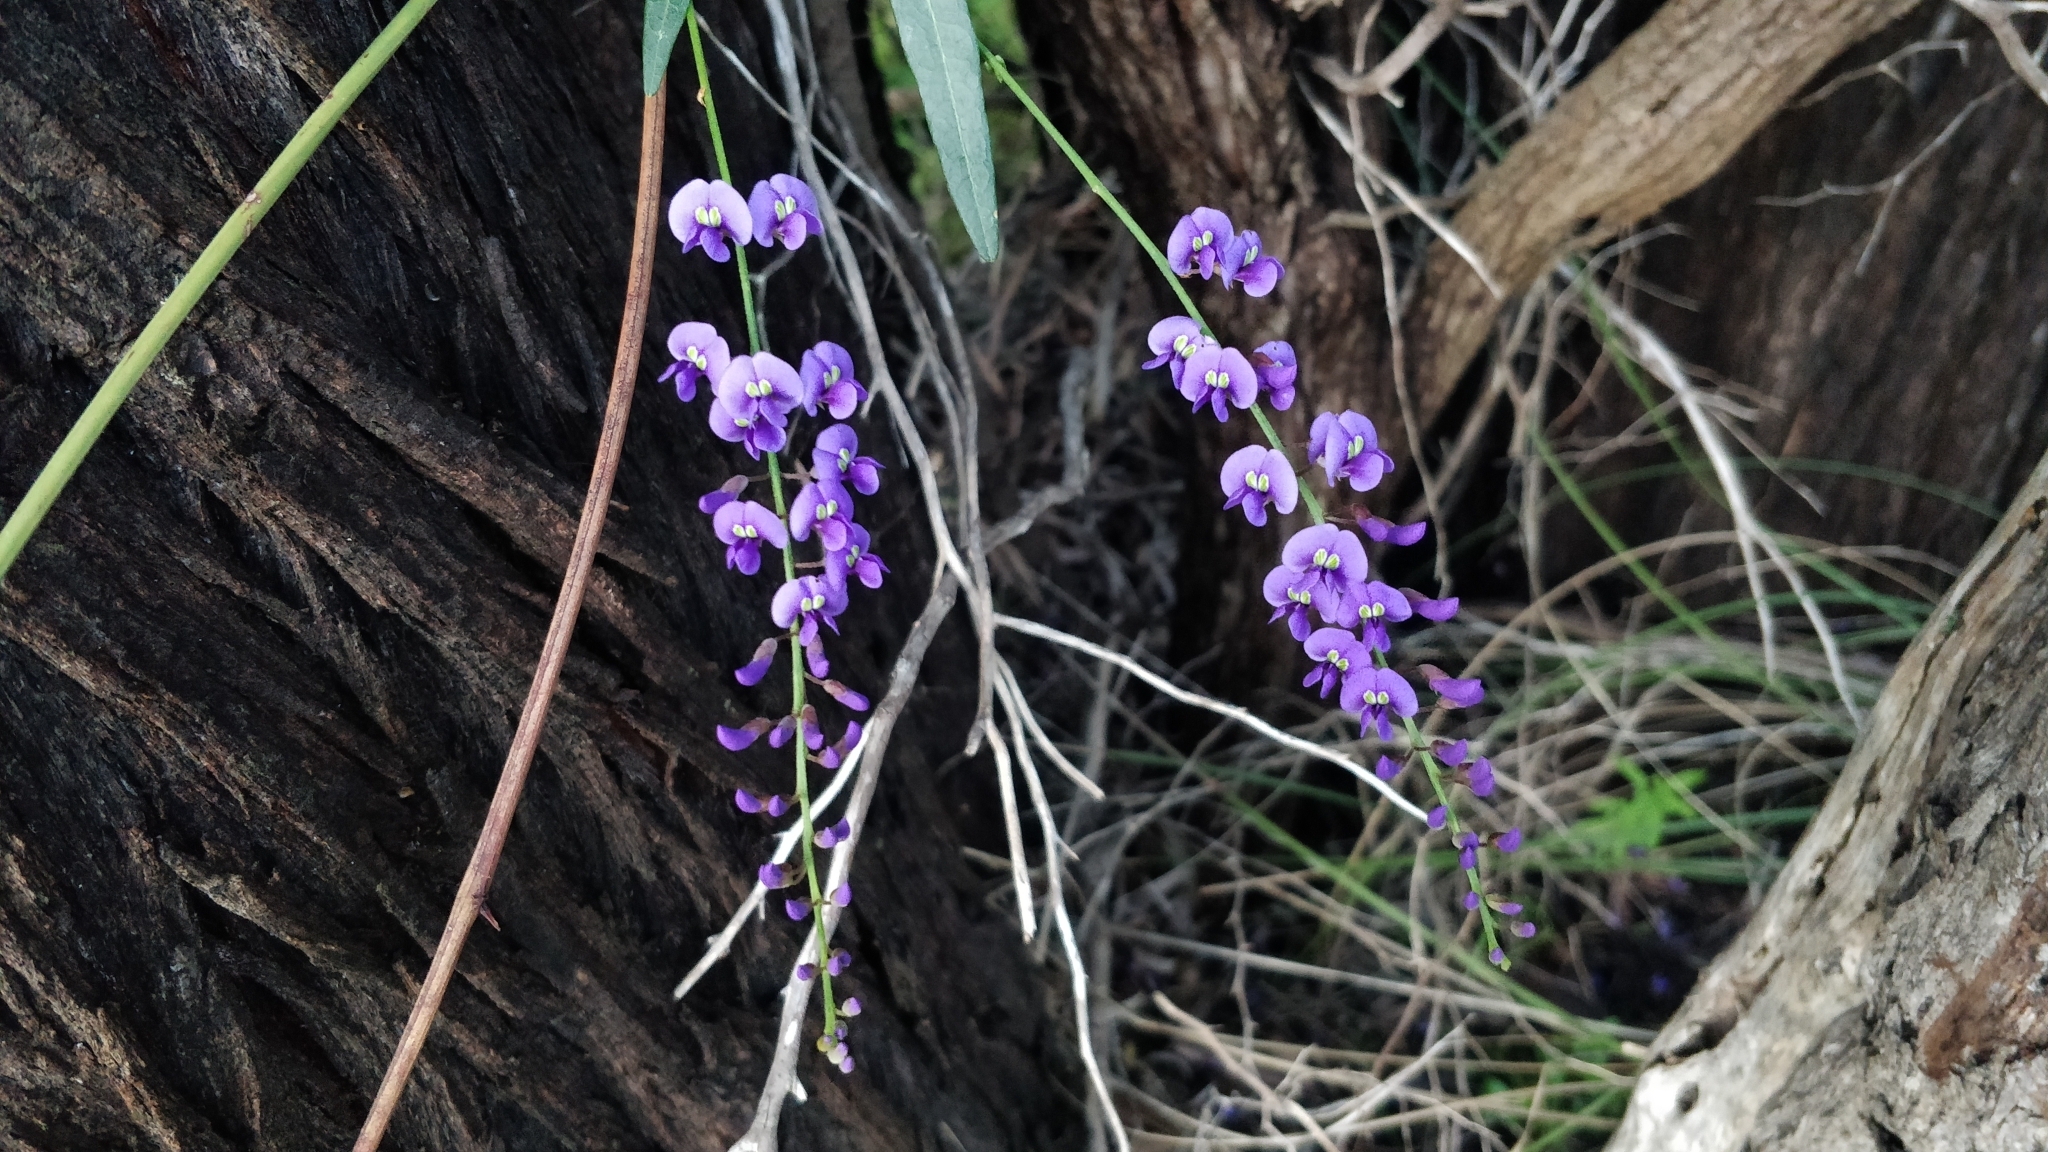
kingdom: Plantae
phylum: Tracheophyta
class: Magnoliopsida
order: Fabales
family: Fabaceae
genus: Hardenbergia
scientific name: Hardenbergia comptoniana
